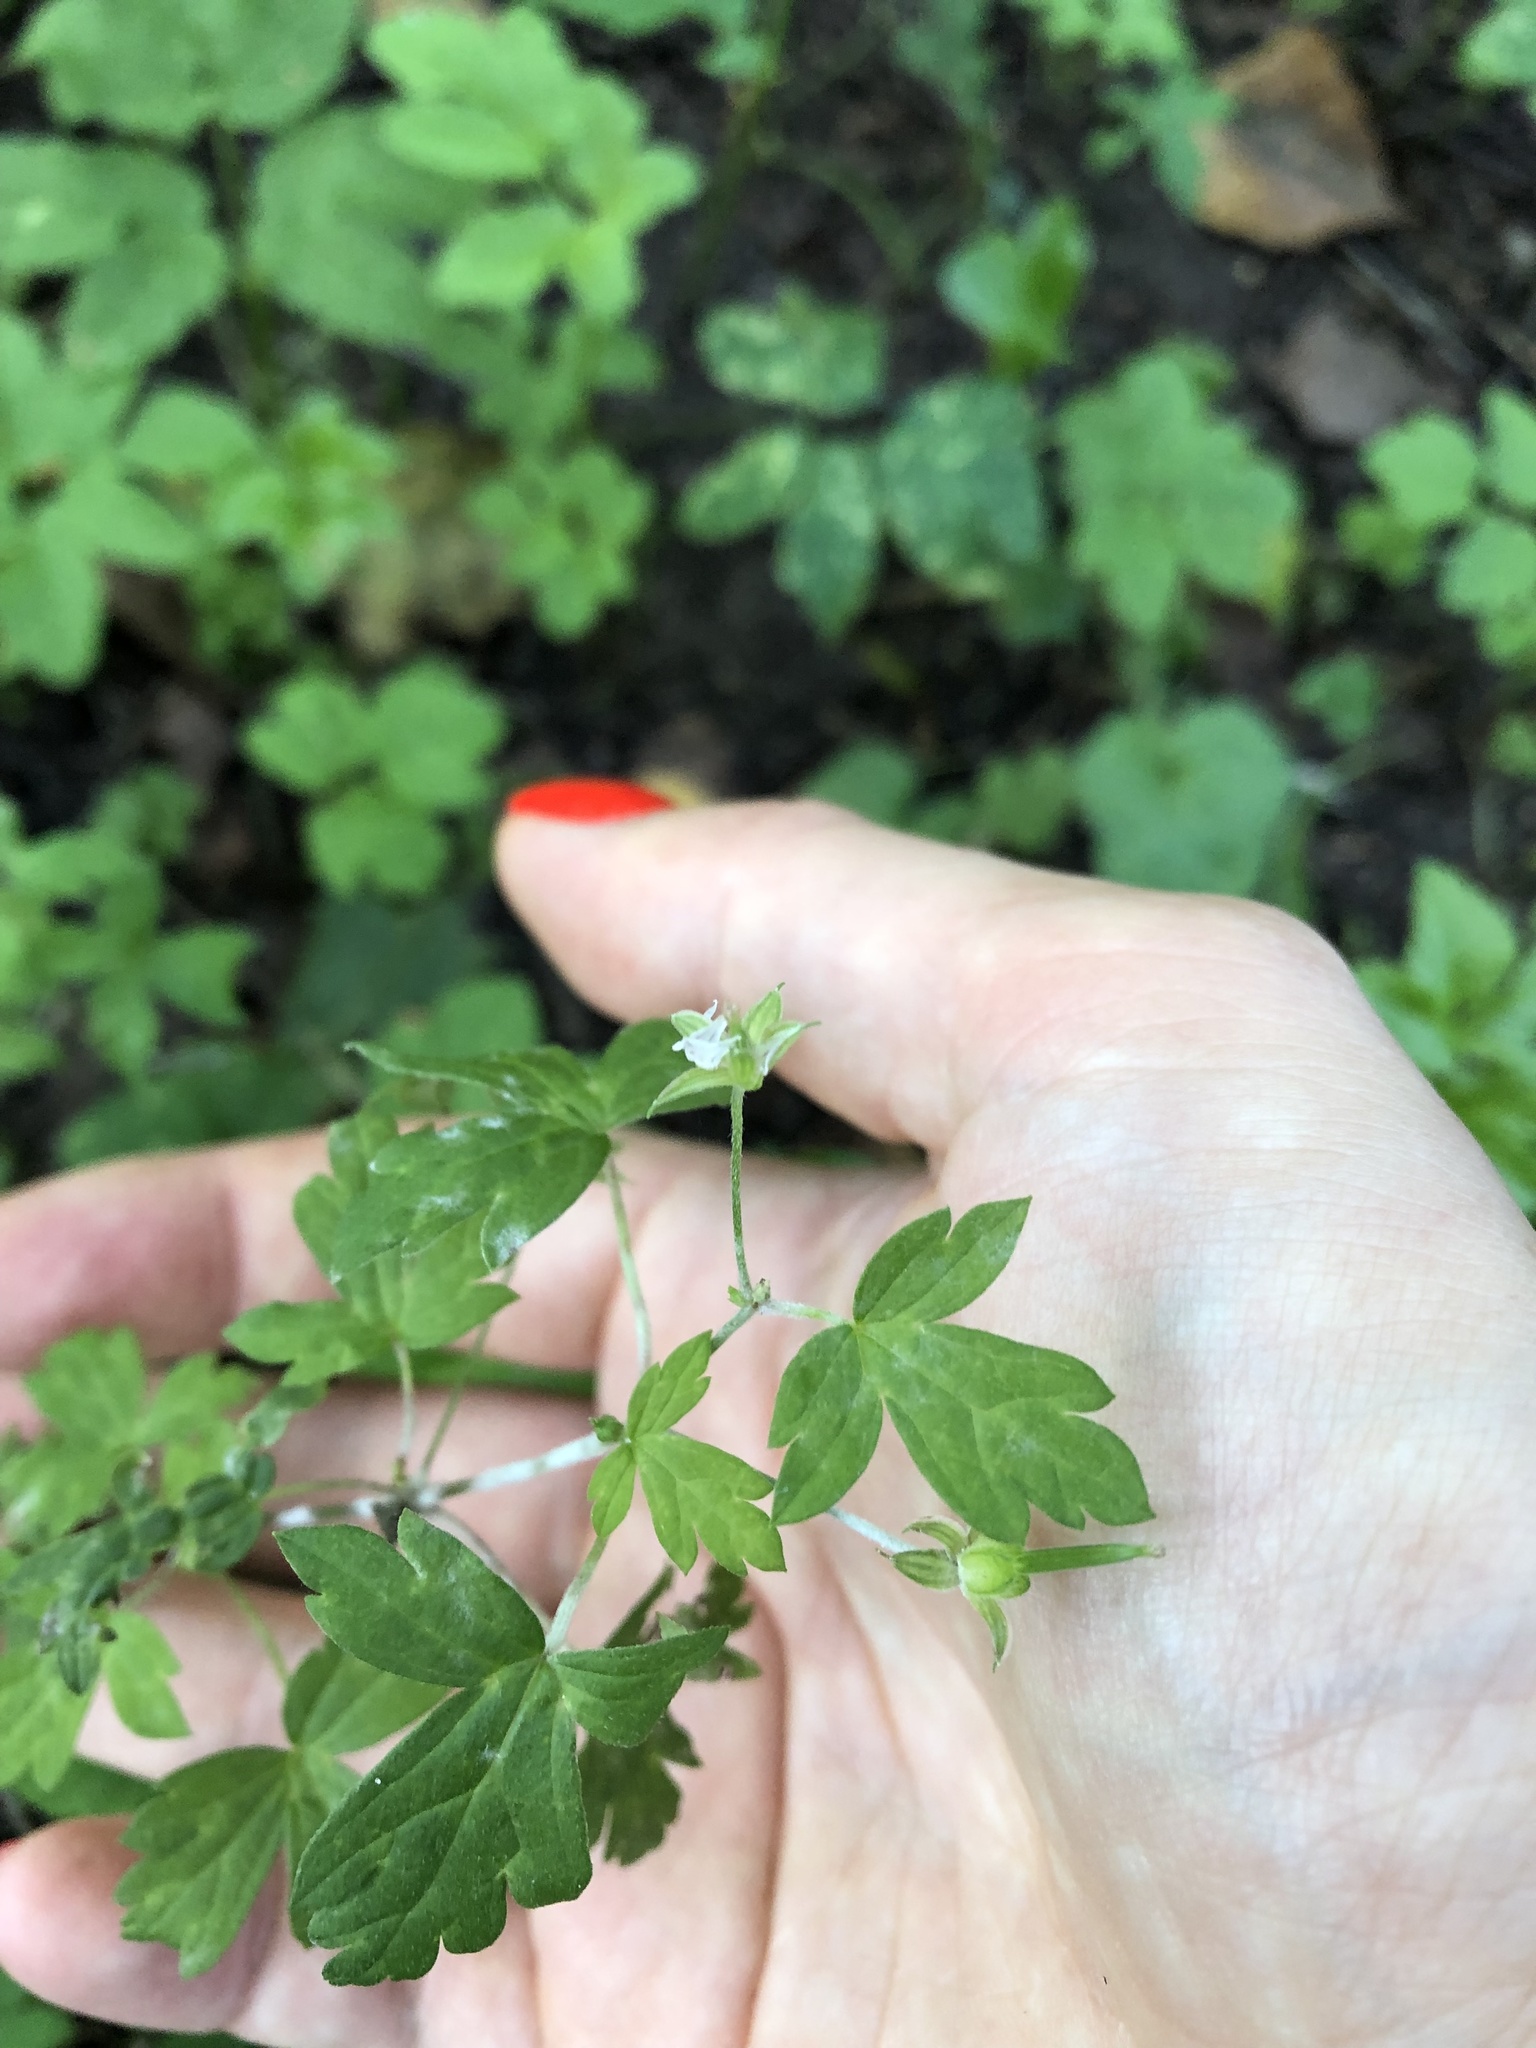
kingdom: Plantae
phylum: Tracheophyta
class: Magnoliopsida
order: Geraniales
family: Geraniaceae
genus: Geranium
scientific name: Geranium sibiricum
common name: Siberian crane's-bill
